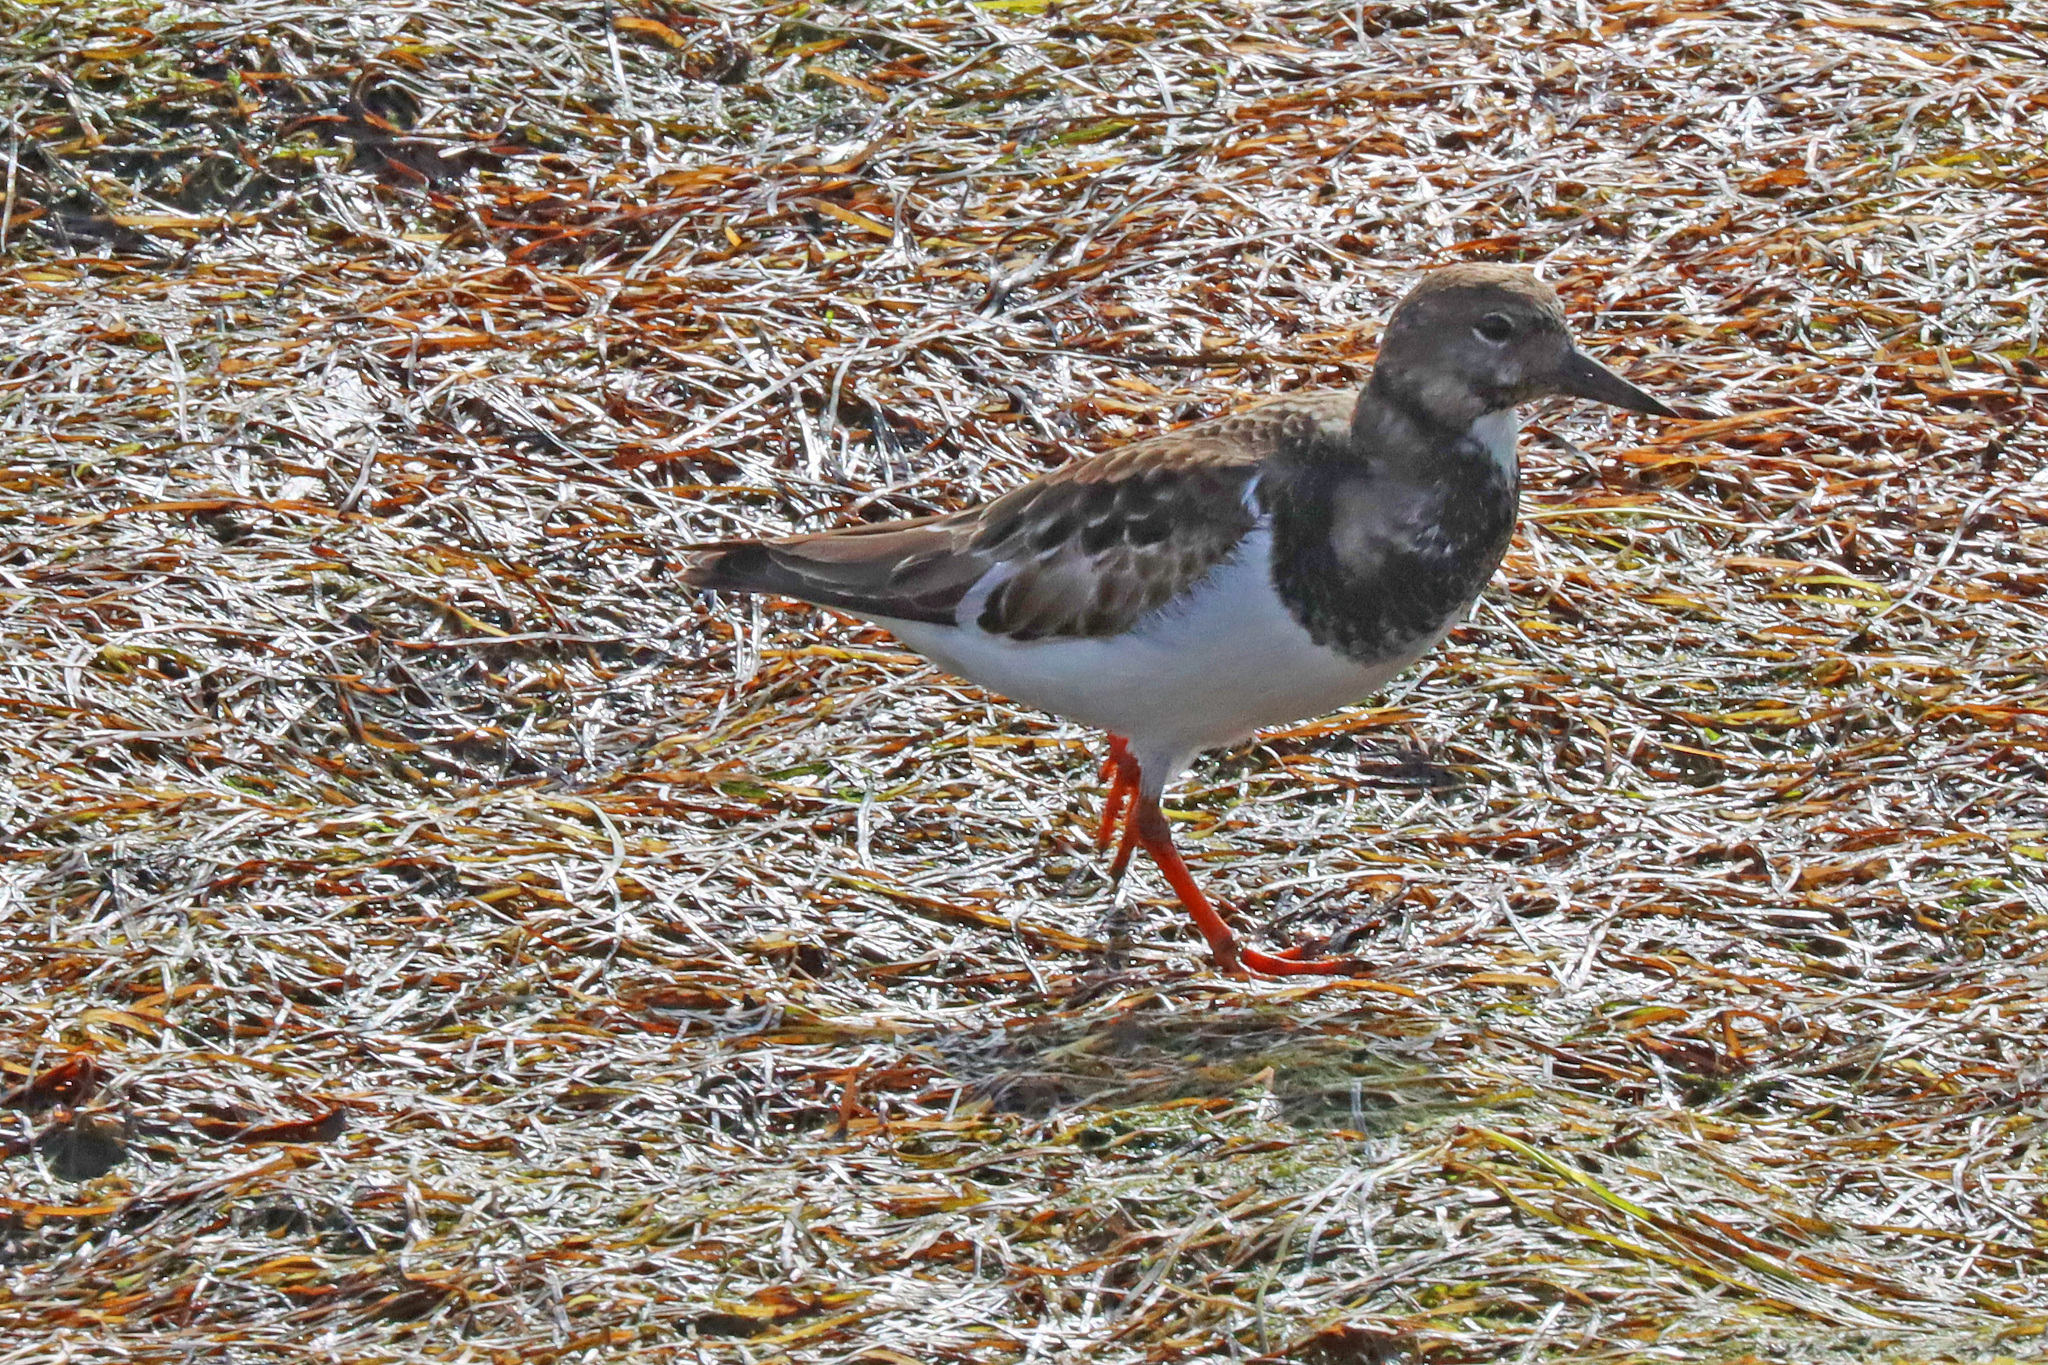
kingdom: Animalia
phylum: Chordata
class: Aves
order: Charadriiformes
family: Scolopacidae
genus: Arenaria
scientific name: Arenaria interpres
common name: Ruddy turnstone
